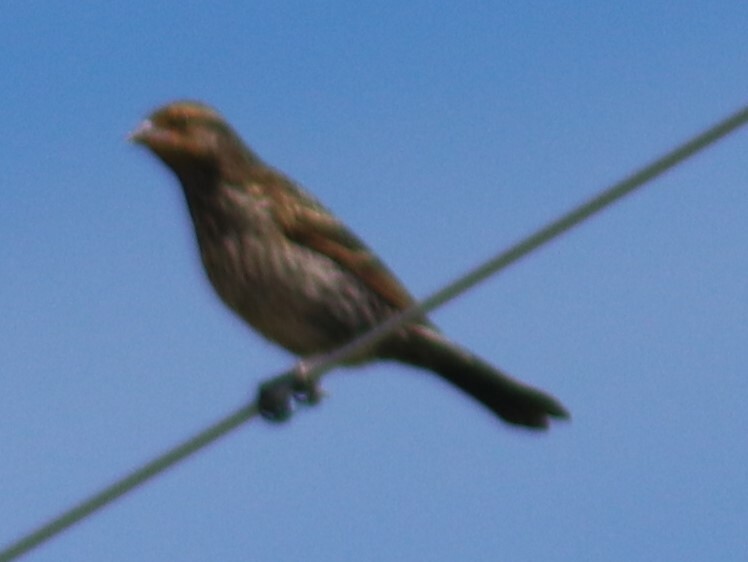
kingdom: Animalia
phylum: Chordata
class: Aves
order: Passeriformes
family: Icteridae
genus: Agelaius
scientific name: Agelaius phoeniceus
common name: Red-winged blackbird
